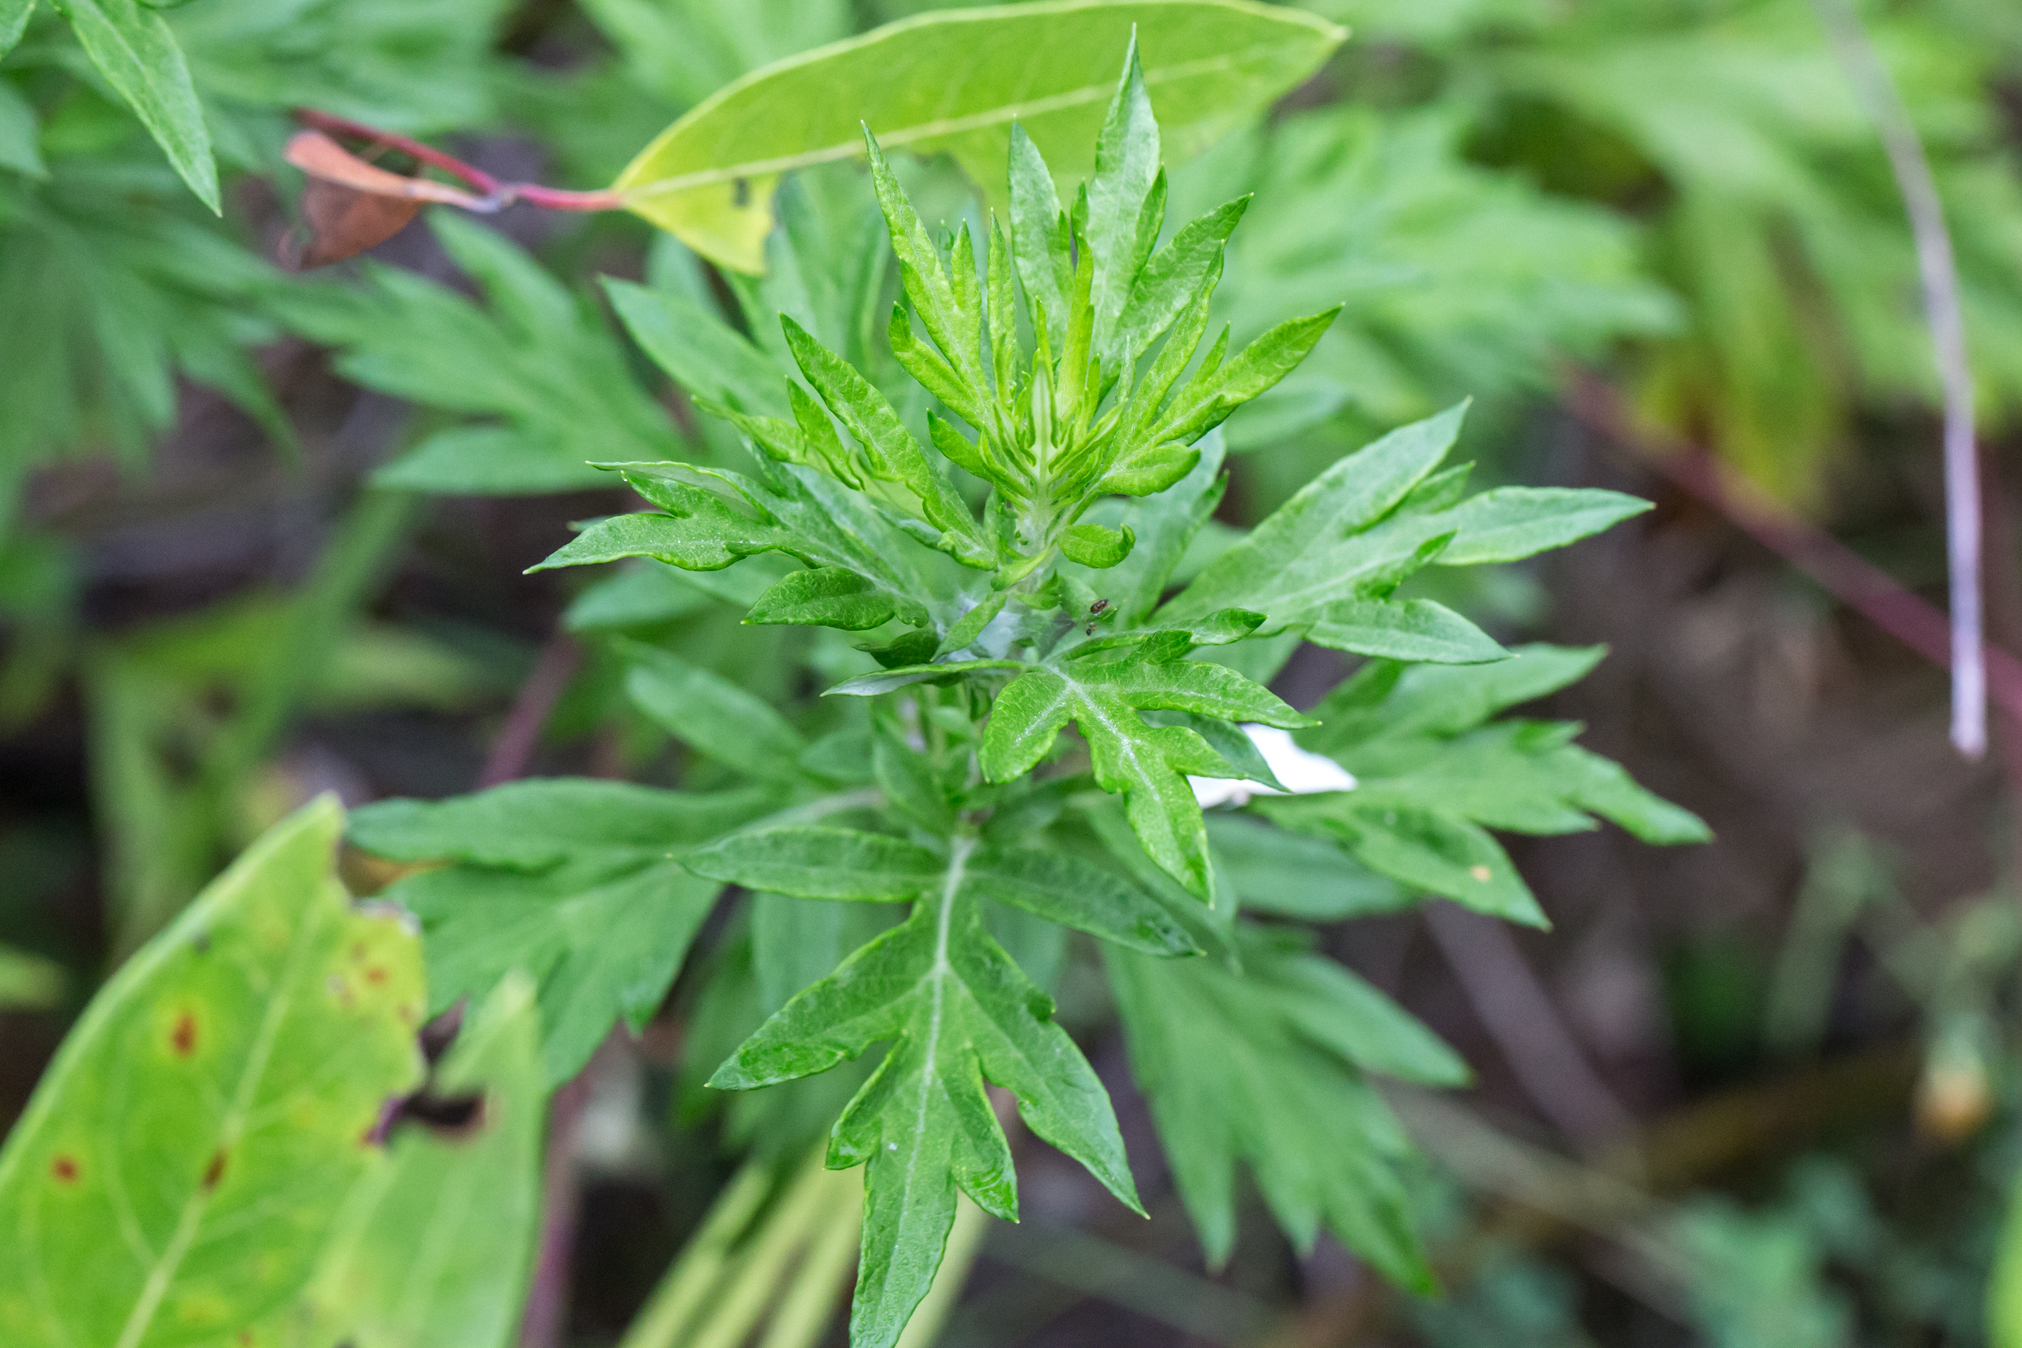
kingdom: Plantae
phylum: Tracheophyta
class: Magnoliopsida
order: Asterales
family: Asteraceae
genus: Artemisia
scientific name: Artemisia vulgaris
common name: Mugwort
